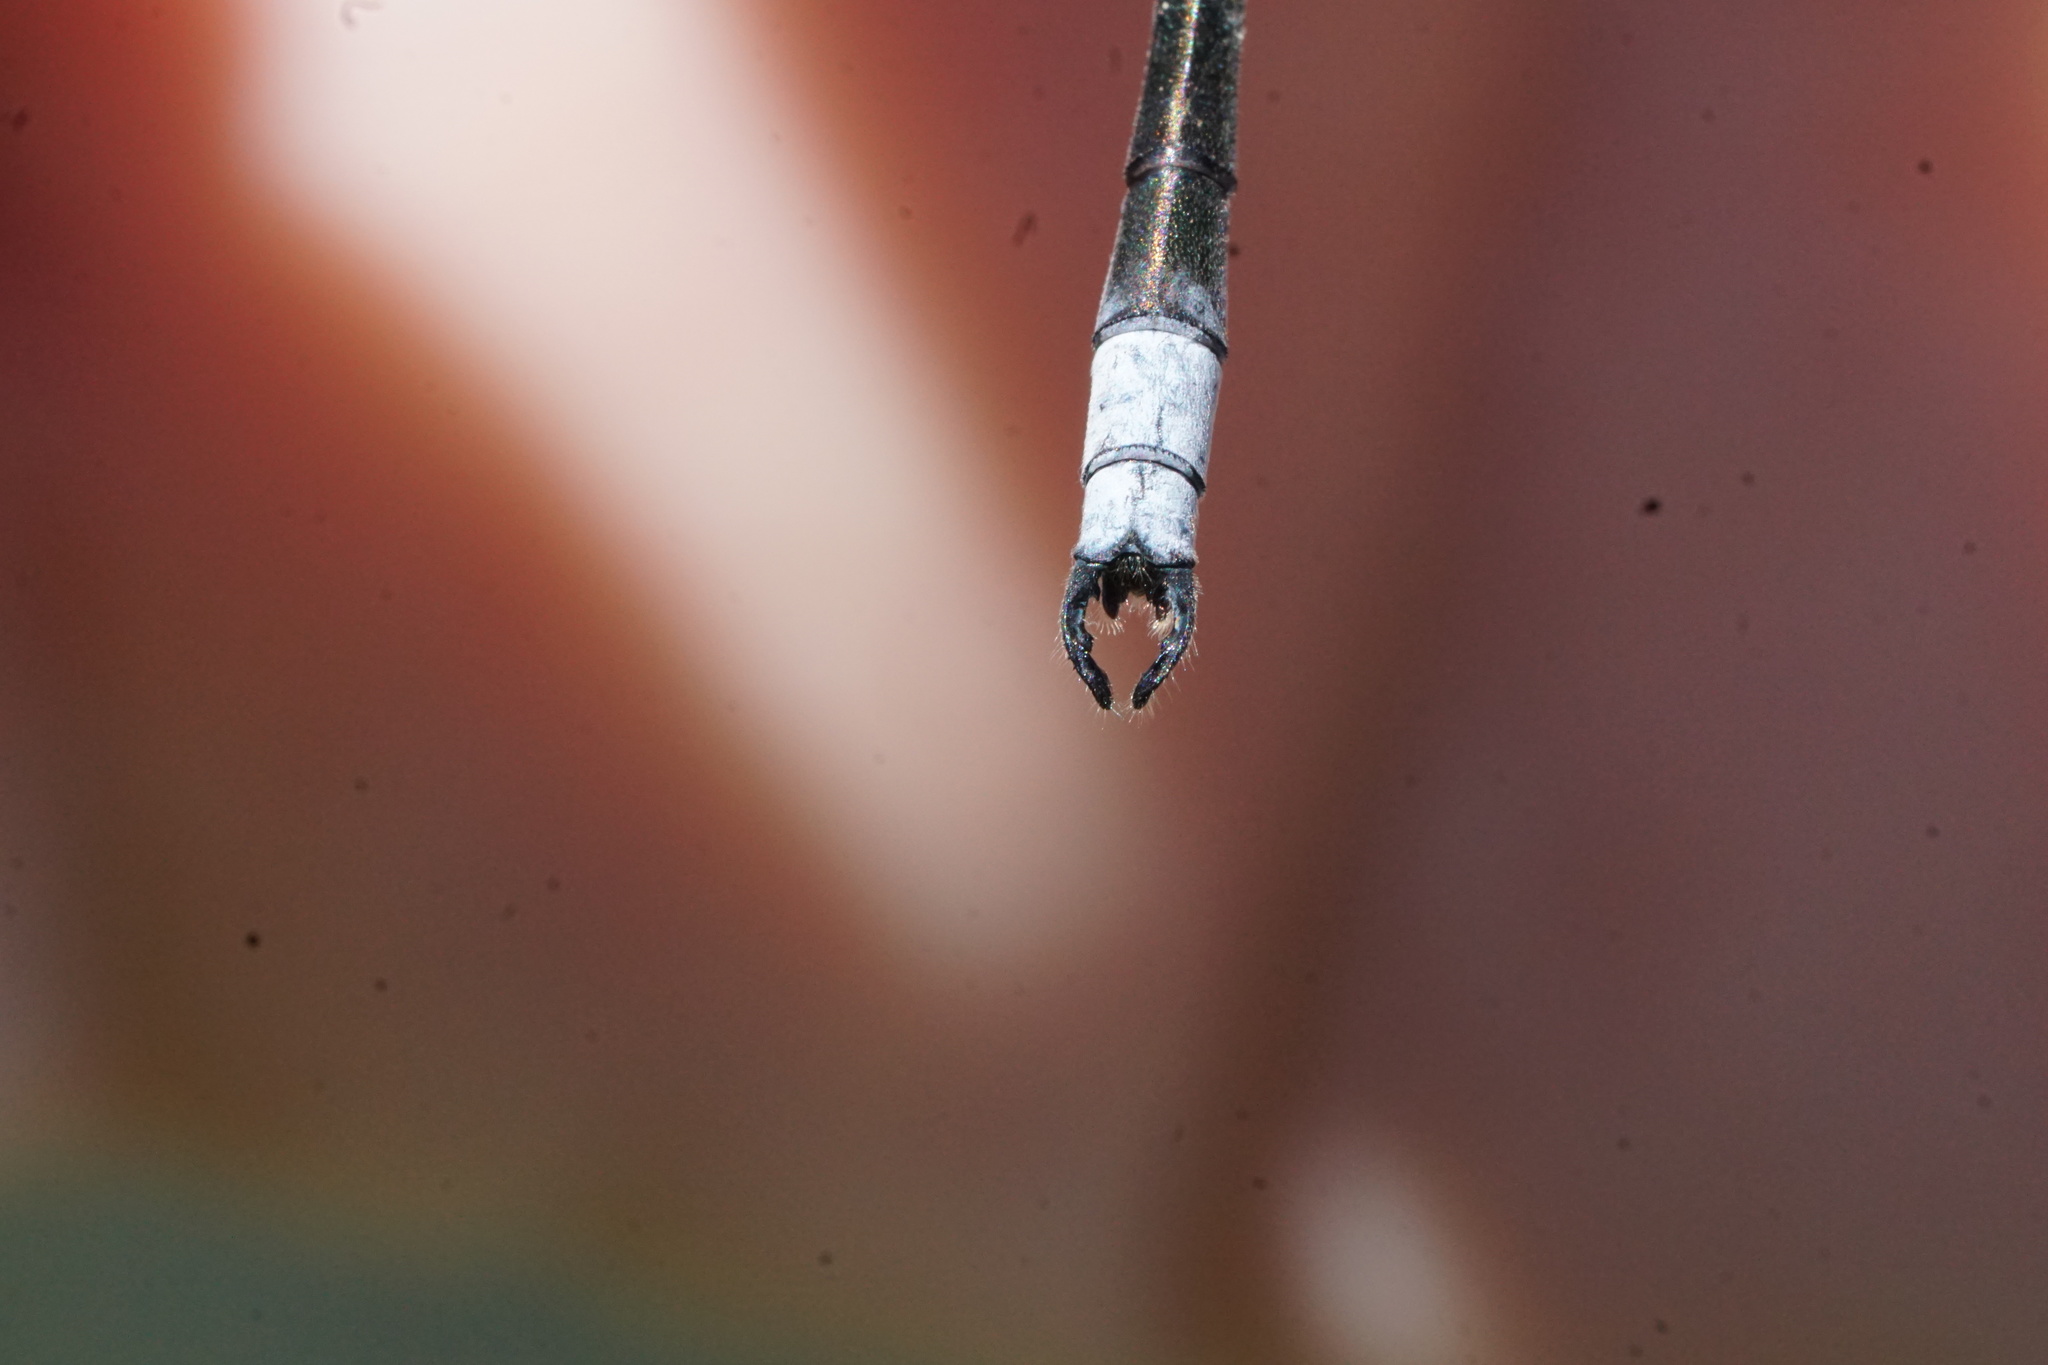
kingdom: Animalia
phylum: Arthropoda
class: Insecta
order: Odonata
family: Lestidae
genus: Lestes
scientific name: Lestes eurinus
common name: Amber-winged spreadwing
